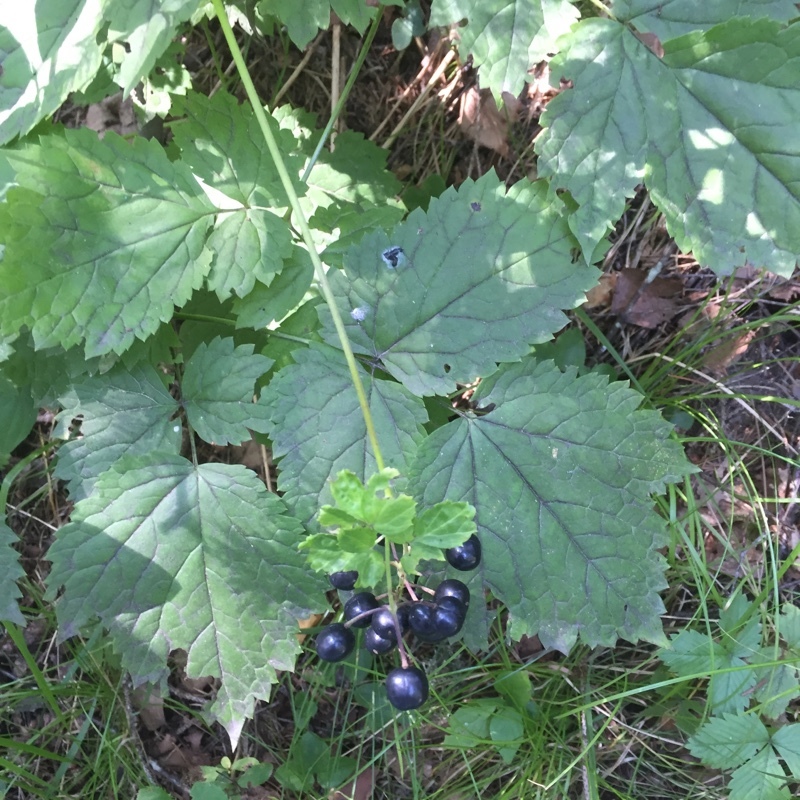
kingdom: Plantae
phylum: Tracheophyta
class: Magnoliopsida
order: Ranunculales
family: Ranunculaceae
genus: Actaea
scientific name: Actaea spicata
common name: Baneberry
